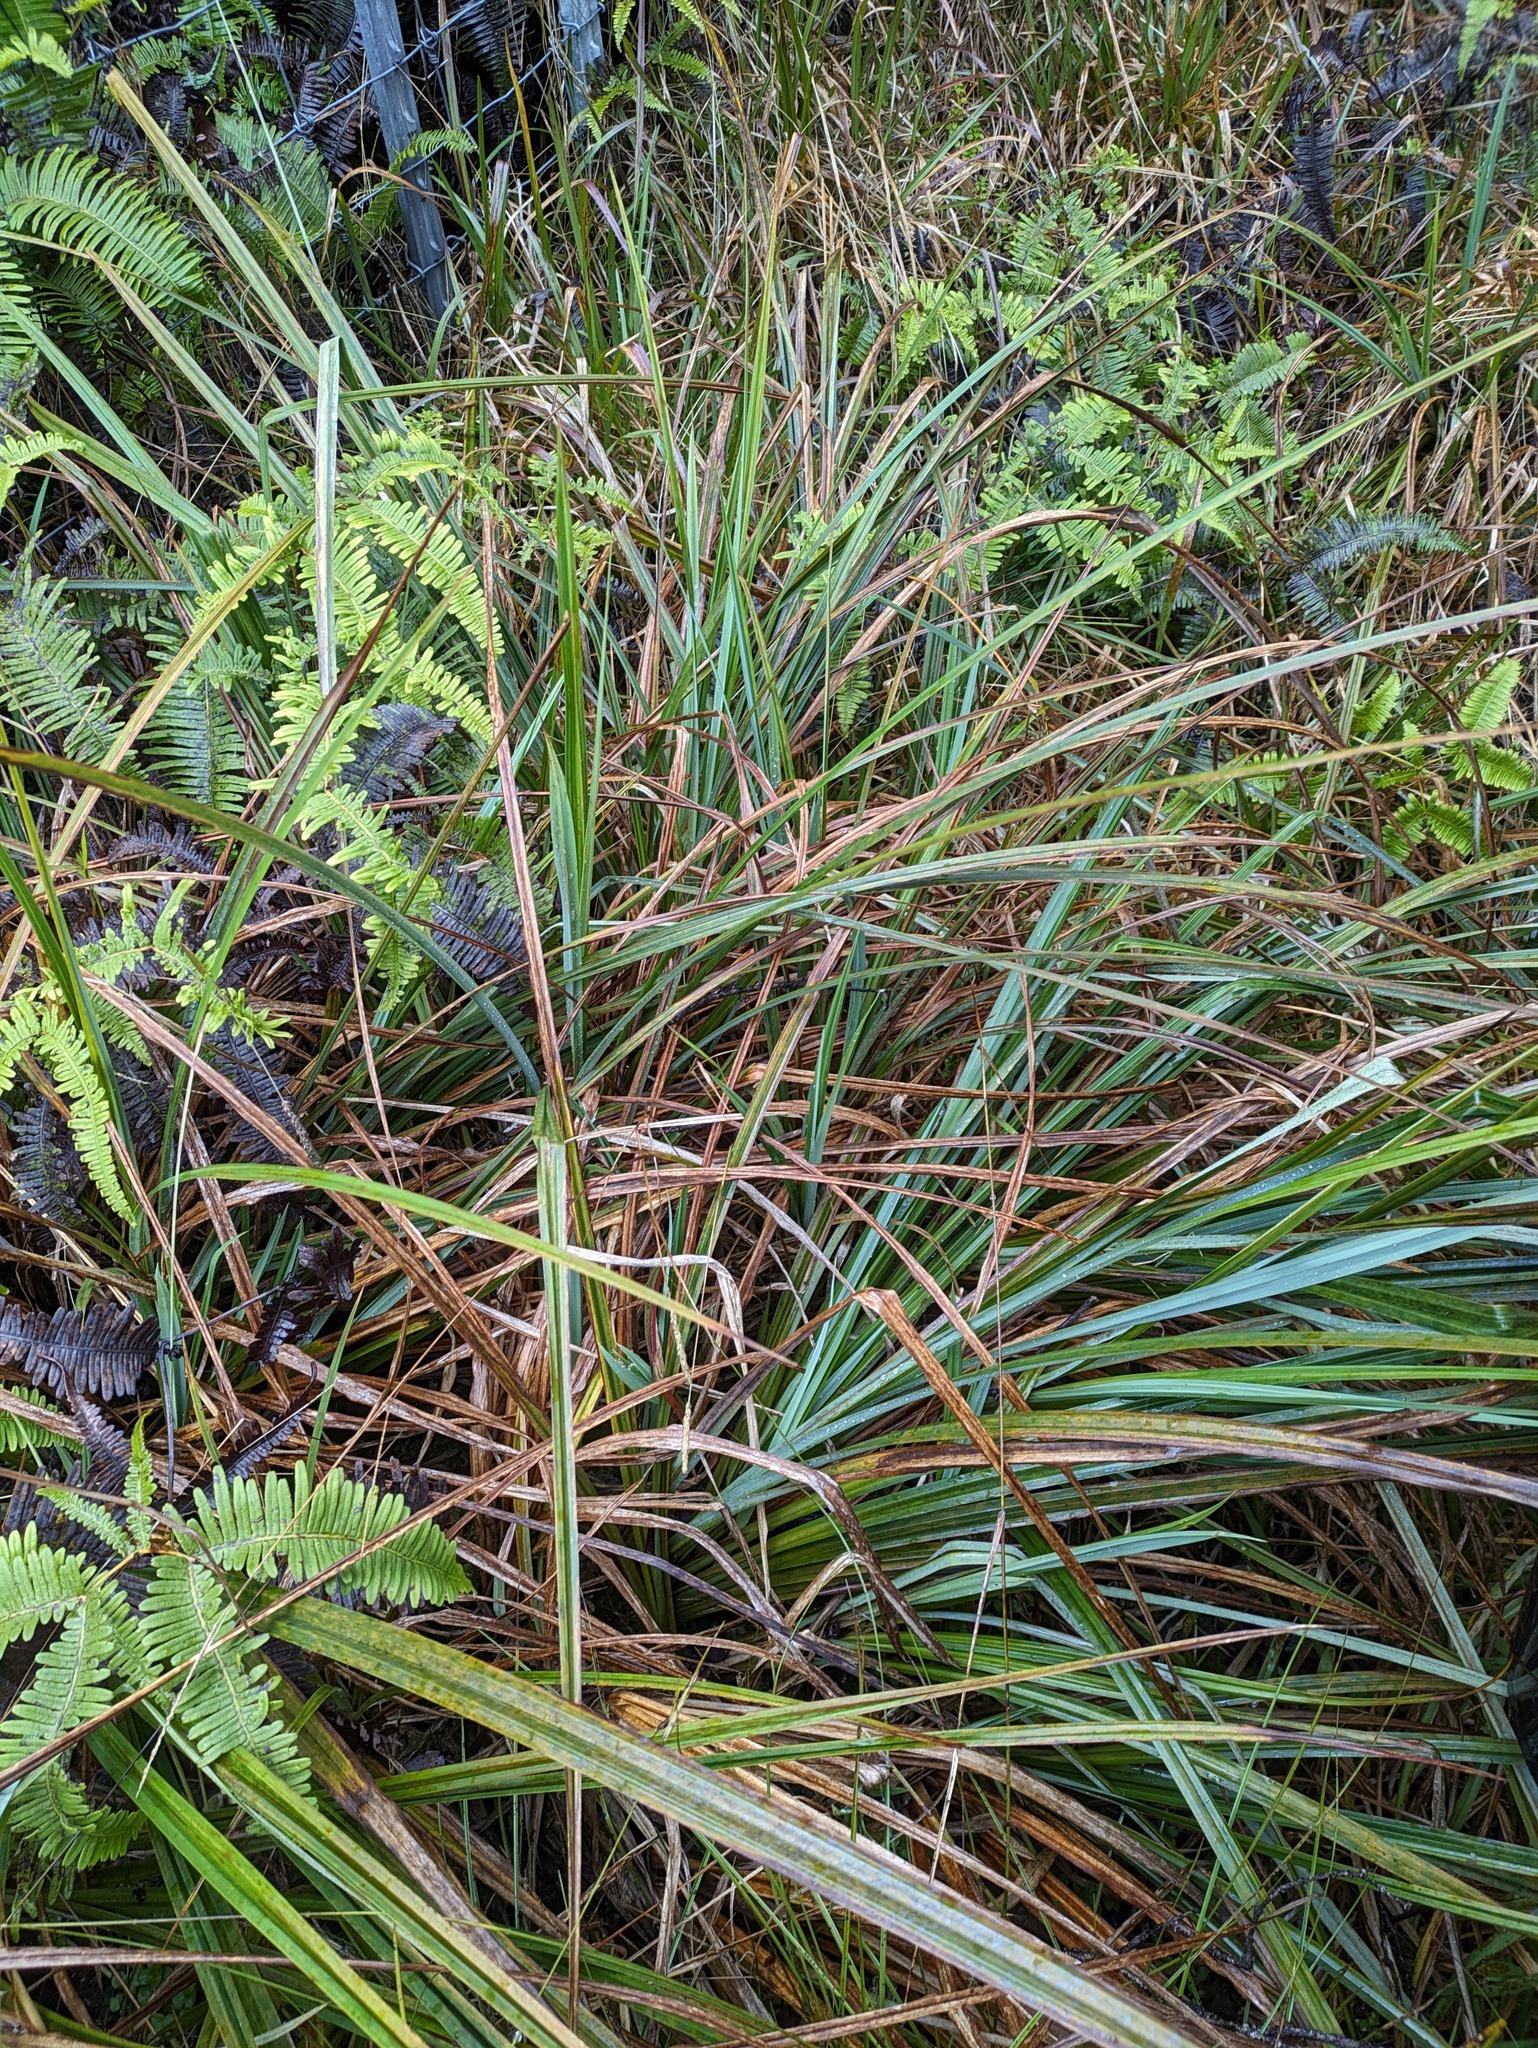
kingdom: Plantae
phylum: Tracheophyta
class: Liliopsida
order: Poales
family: Cyperaceae
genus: Carex
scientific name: Carex alligata
